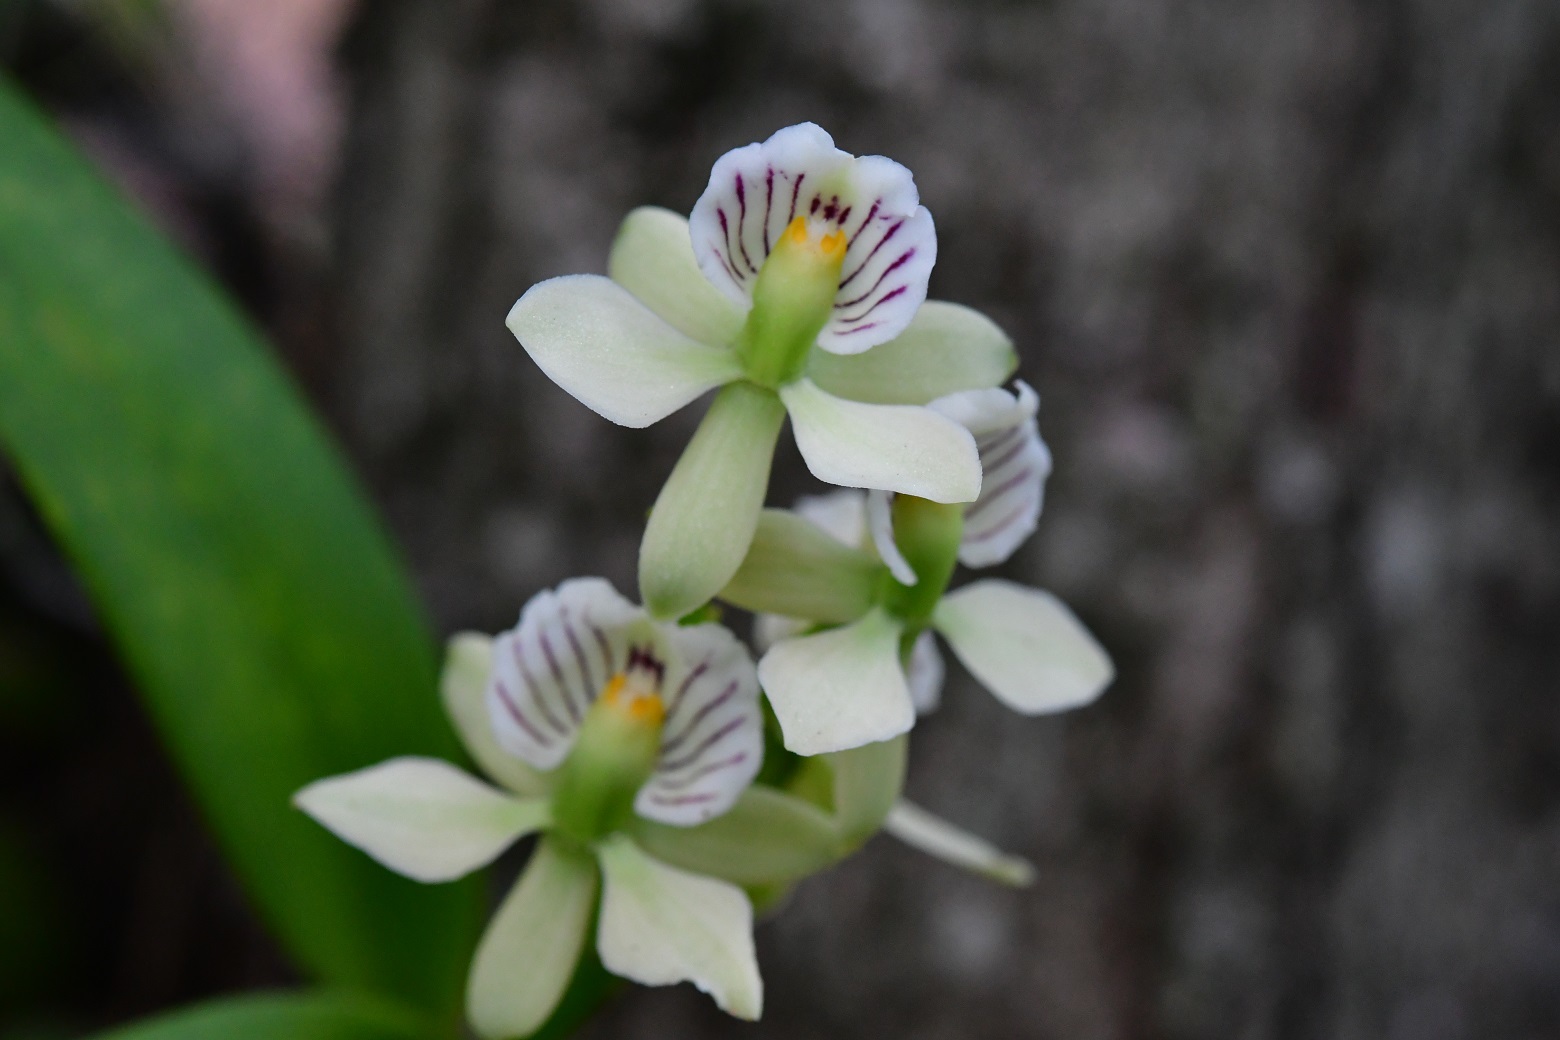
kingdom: Plantae
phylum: Tracheophyta
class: Liliopsida
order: Asparagales
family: Orchidaceae
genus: Prosthechea
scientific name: Prosthechea radiata
